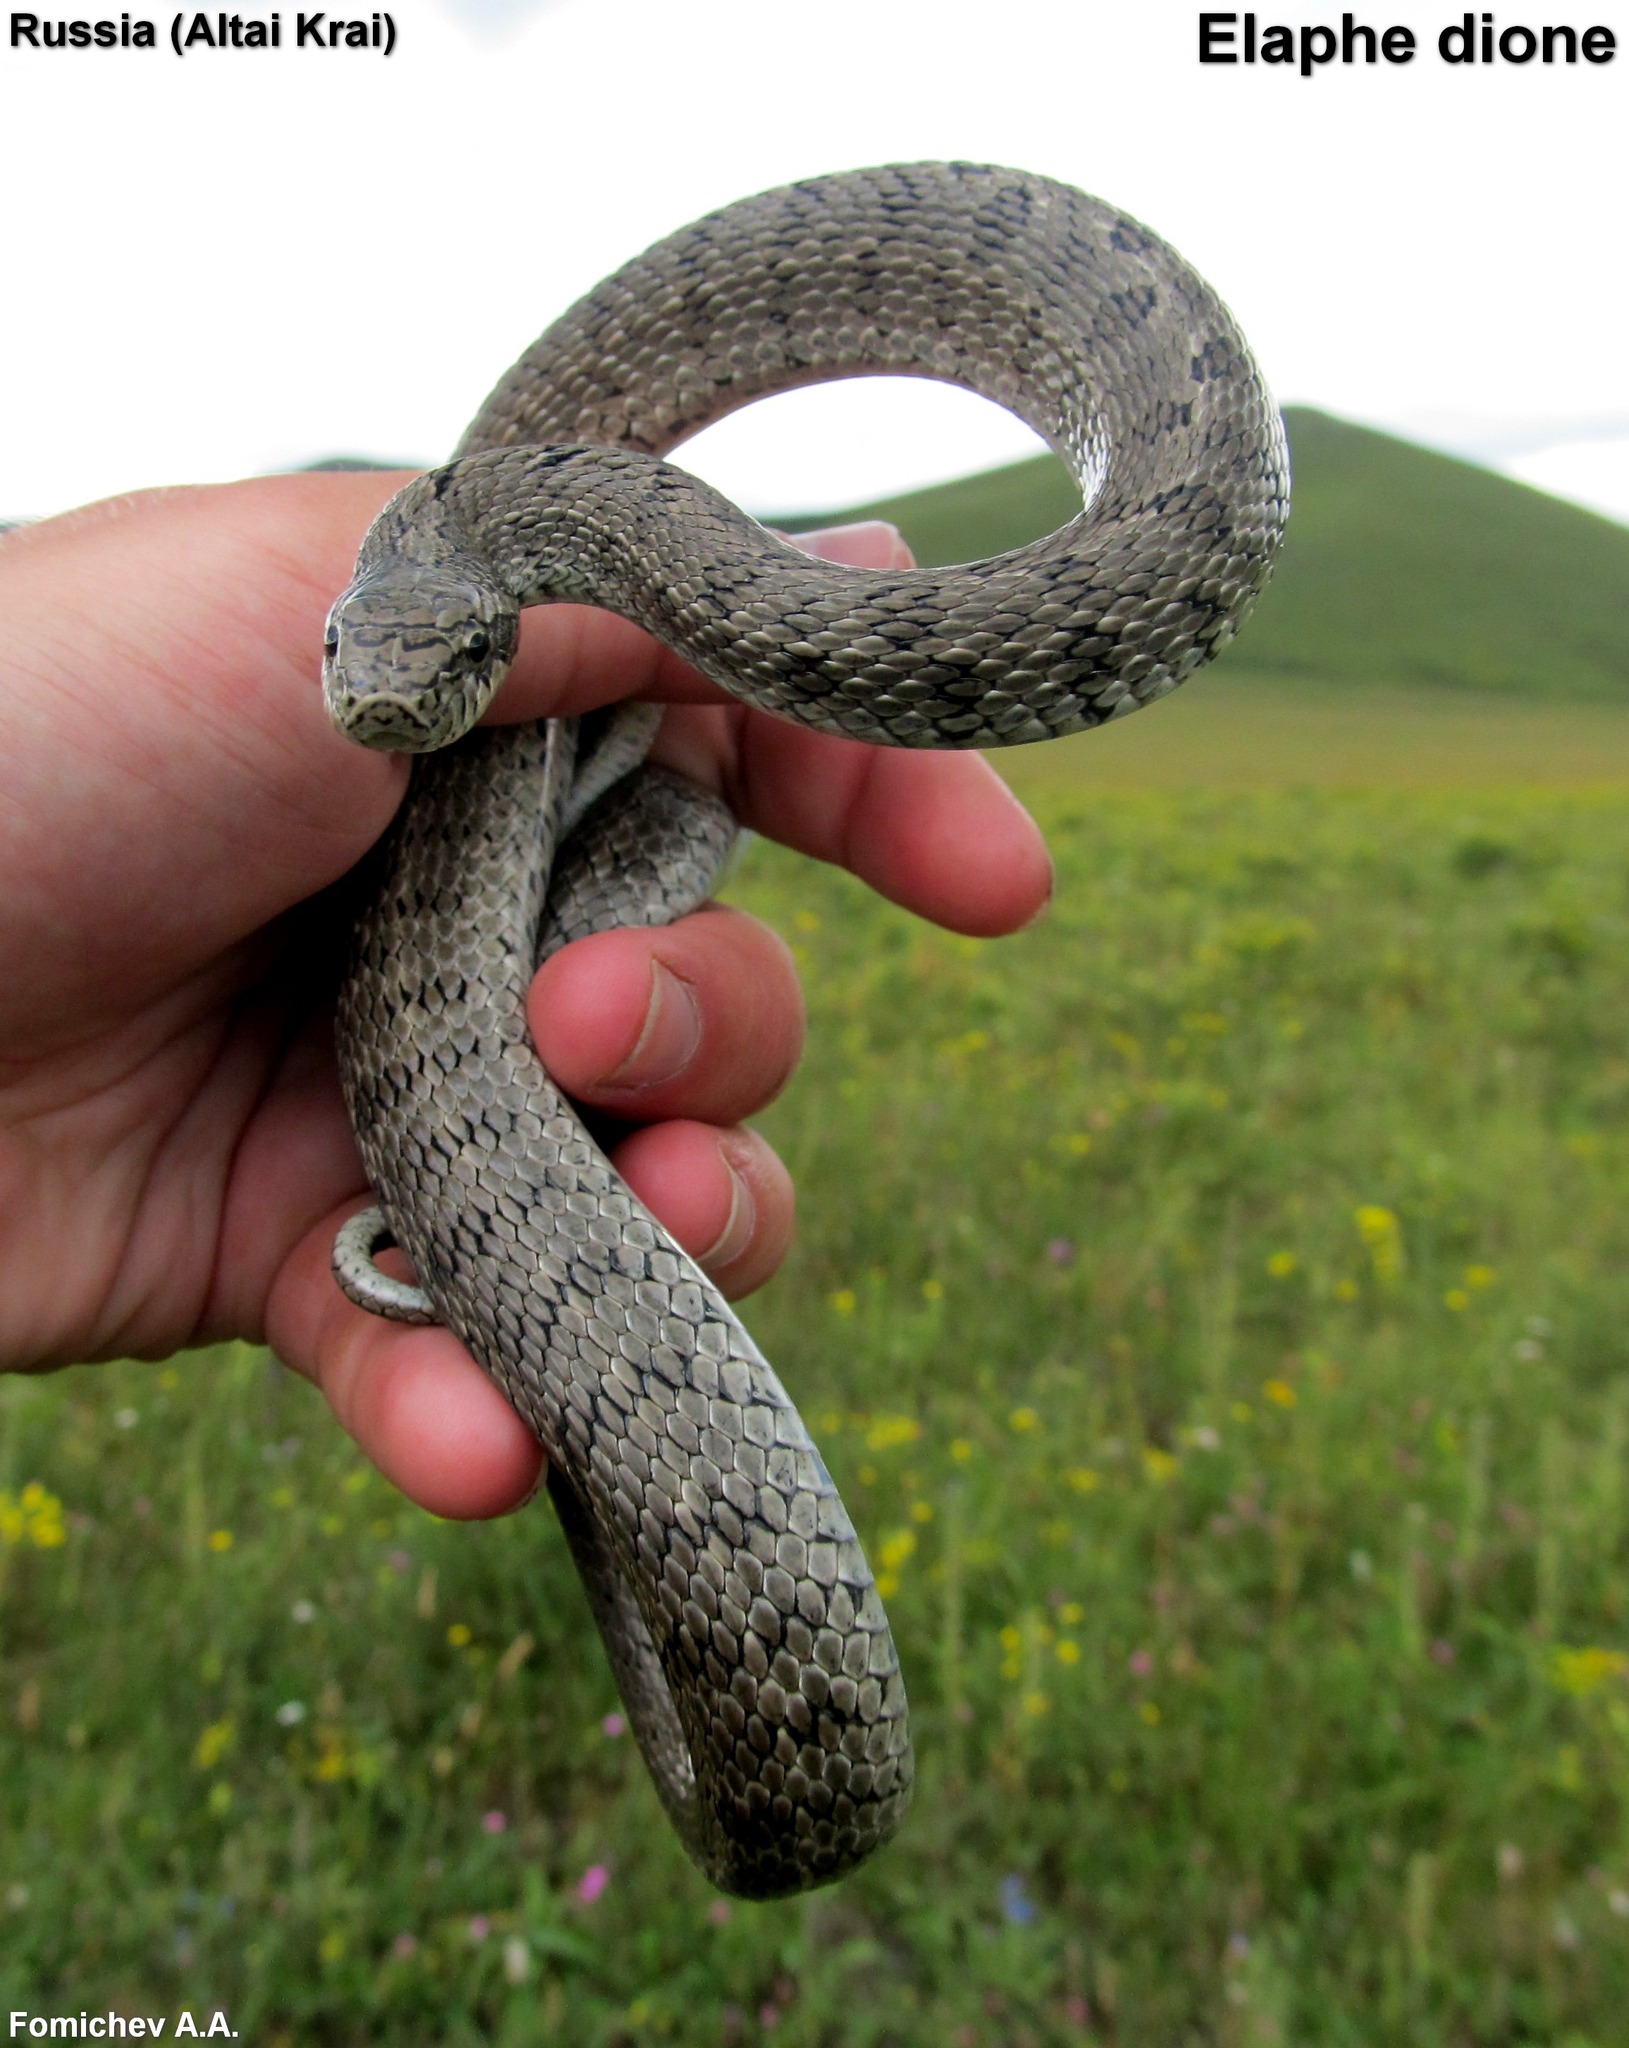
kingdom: Animalia
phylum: Chordata
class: Squamata
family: Colubridae
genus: Elaphe
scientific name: Elaphe dione
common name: Dione ratsnake
